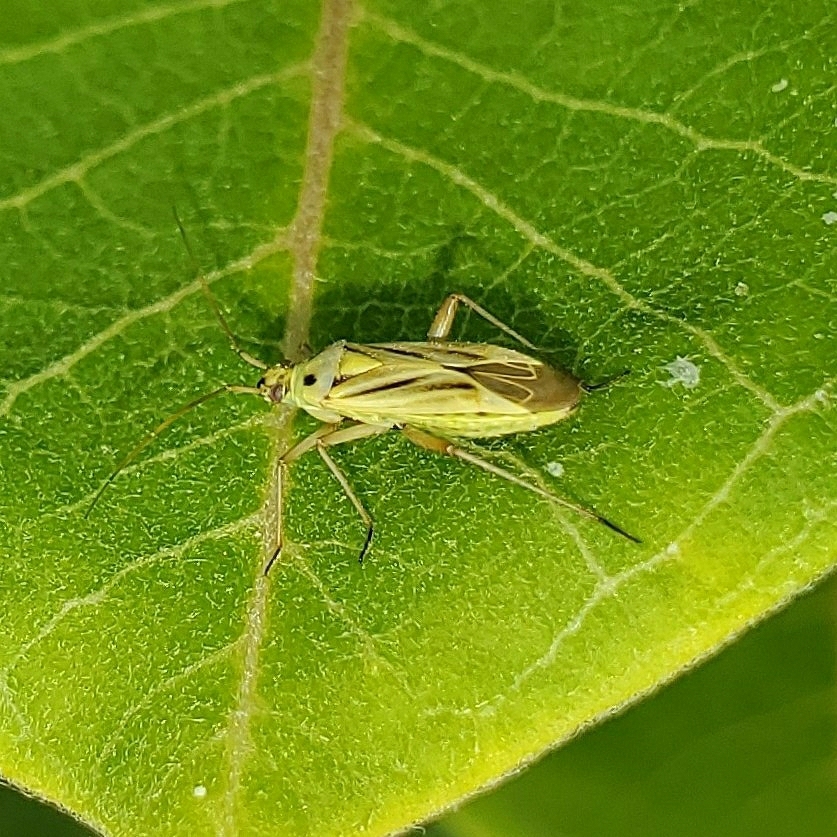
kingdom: Animalia
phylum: Arthropoda
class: Insecta
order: Hemiptera
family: Miridae
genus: Stenotus
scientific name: Stenotus binotatus
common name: Plant bug
